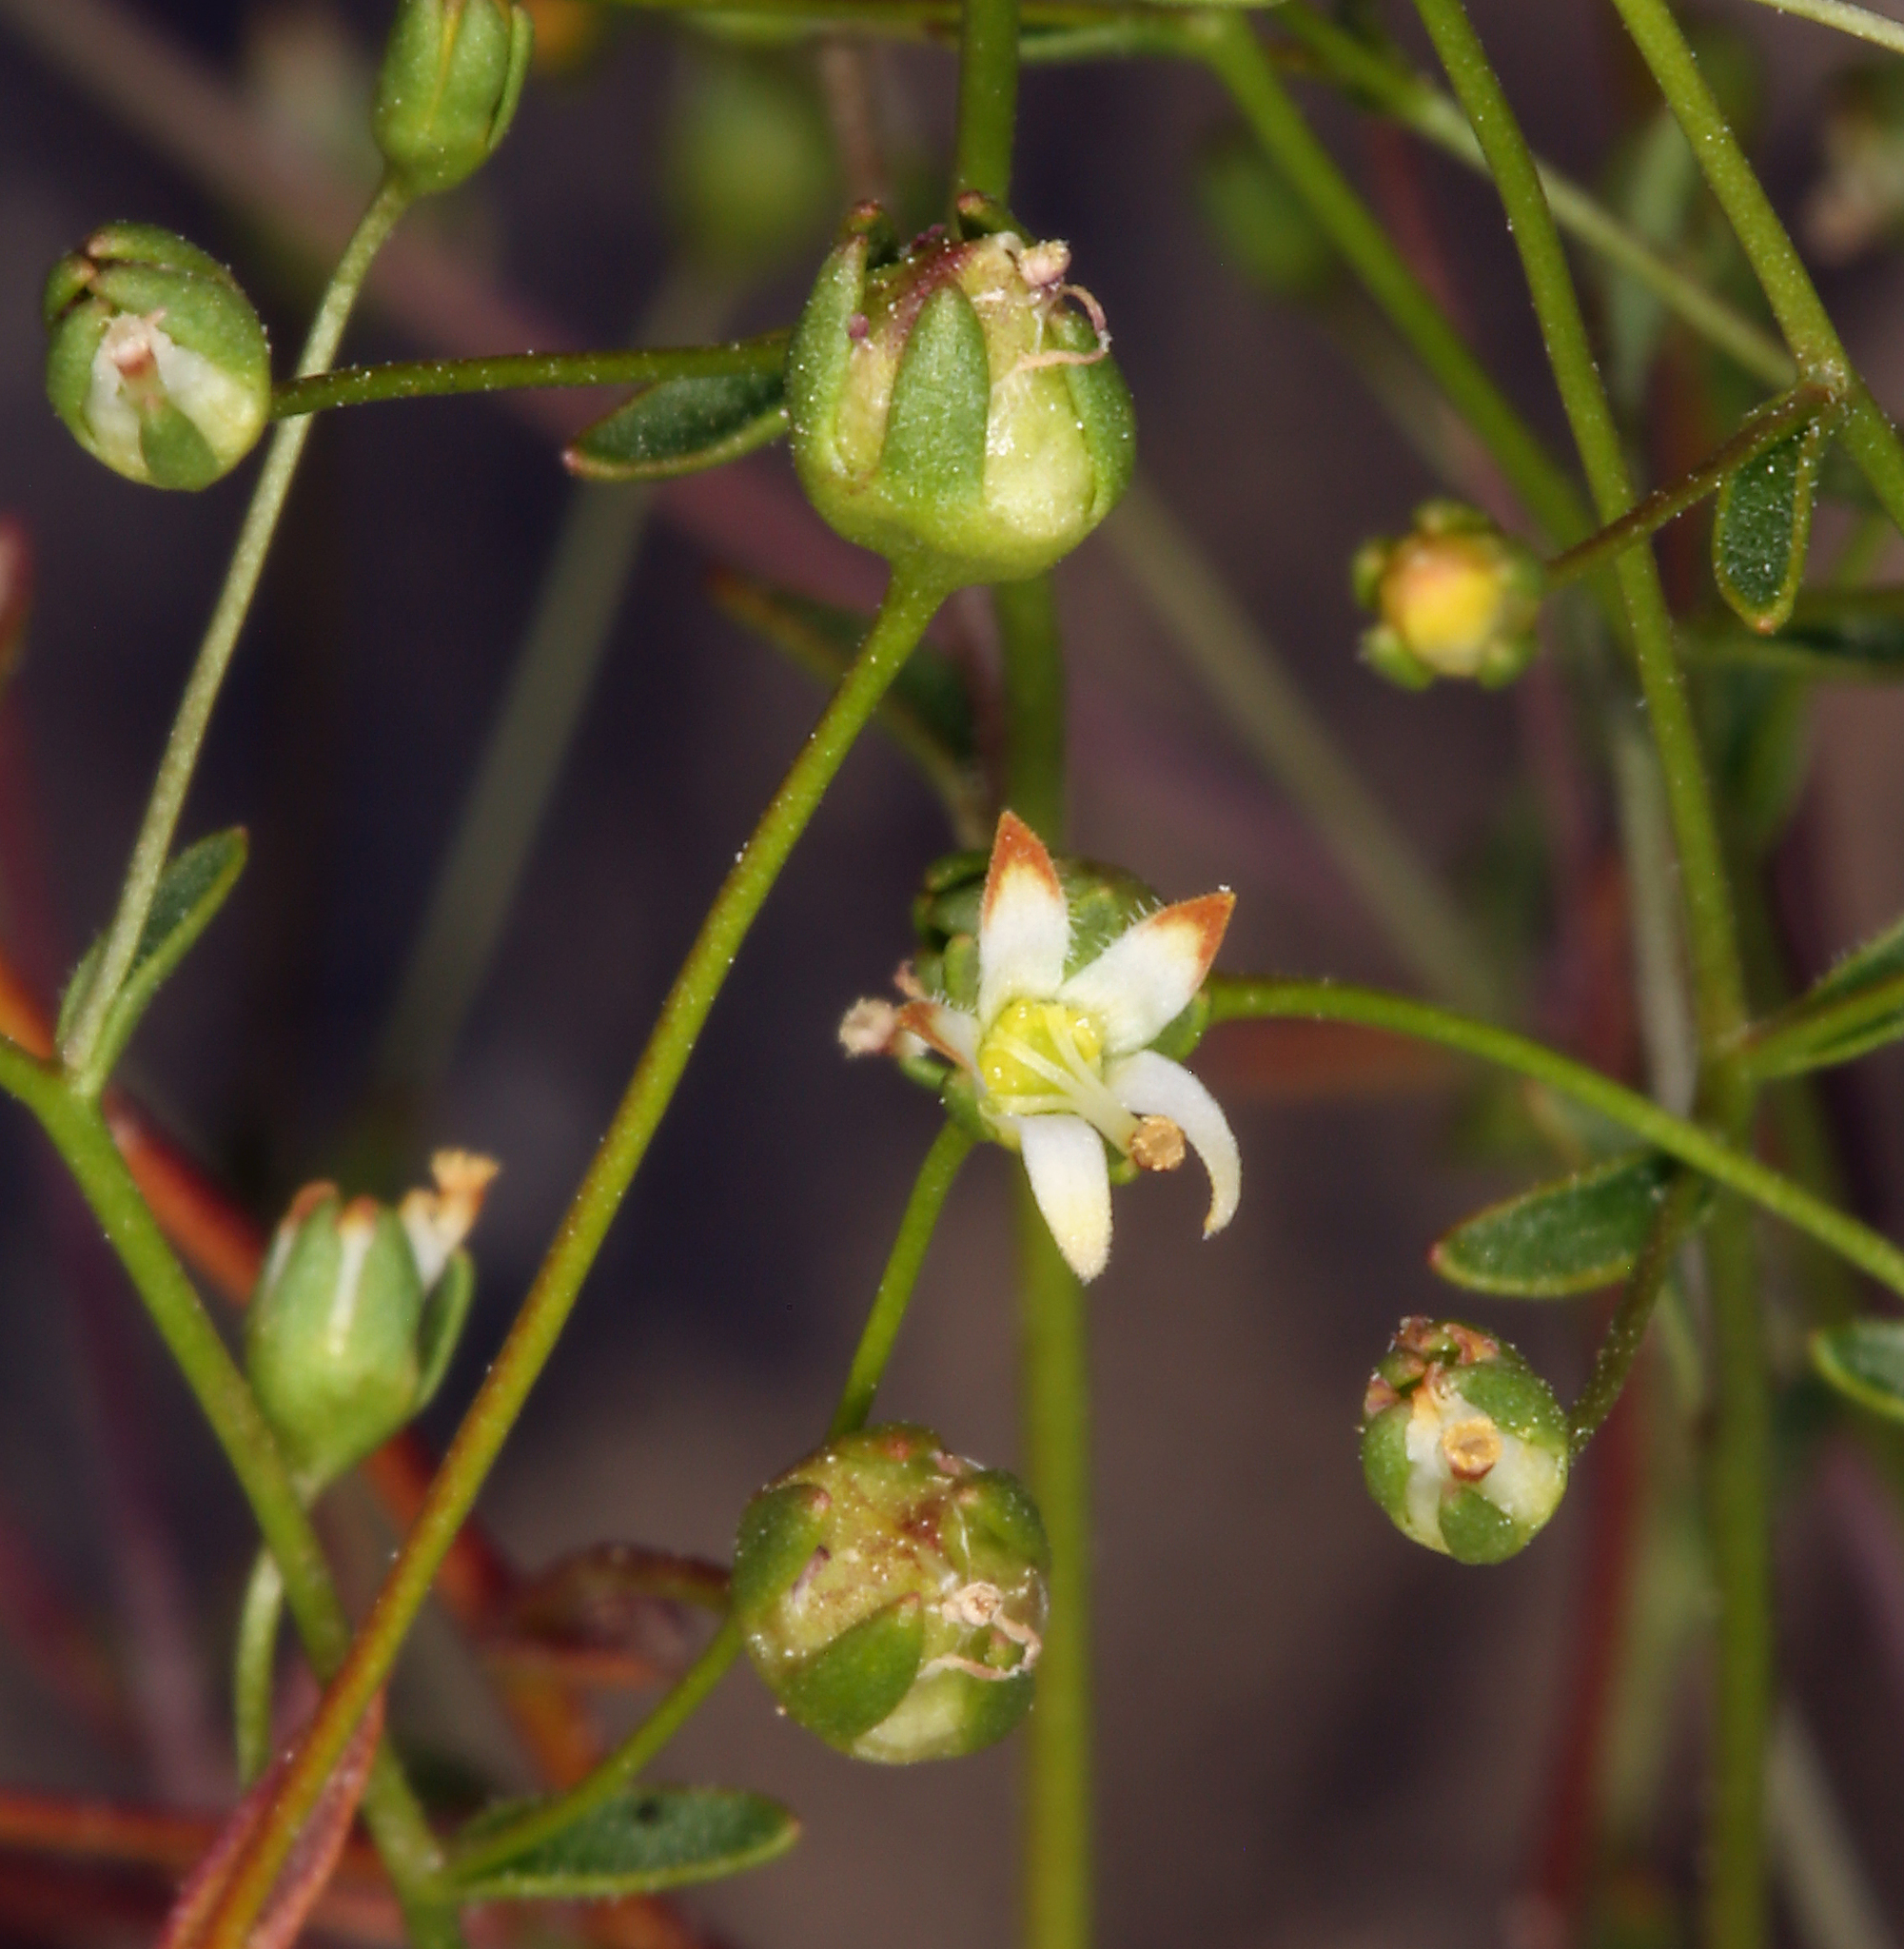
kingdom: Plantae
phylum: Tracheophyta
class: Magnoliopsida
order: Asterales
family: Campanulaceae
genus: Nemacladus
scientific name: Nemacladus morefieldii
